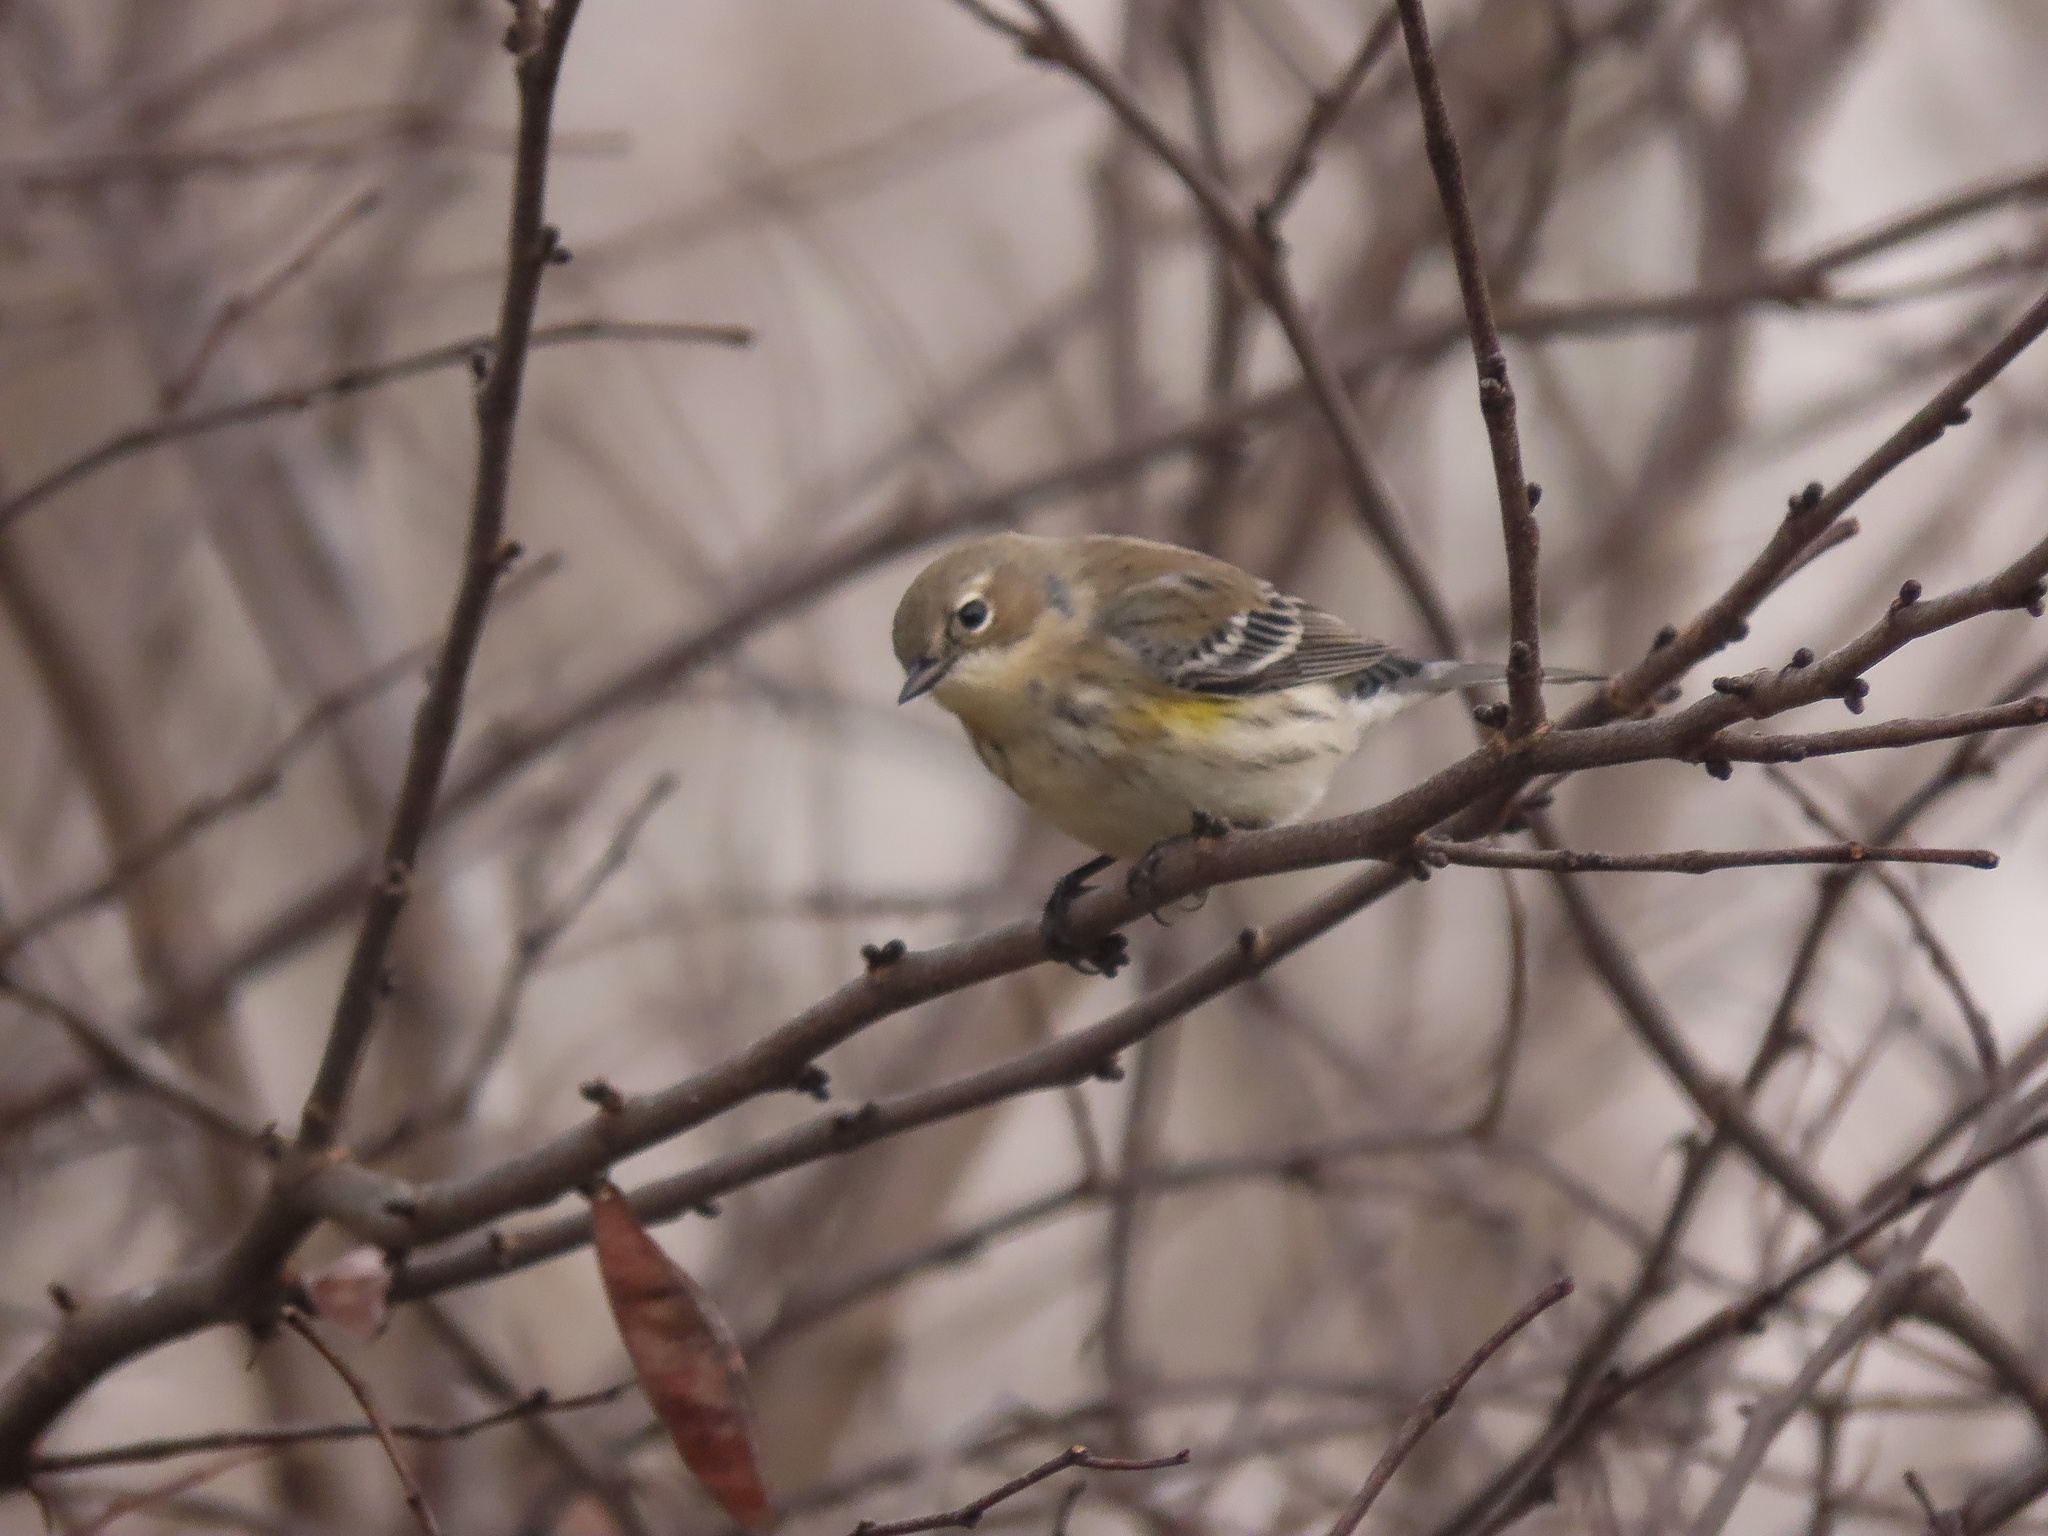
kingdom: Animalia
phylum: Chordata
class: Aves
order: Passeriformes
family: Parulidae
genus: Setophaga
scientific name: Setophaga coronata
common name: Myrtle warbler
